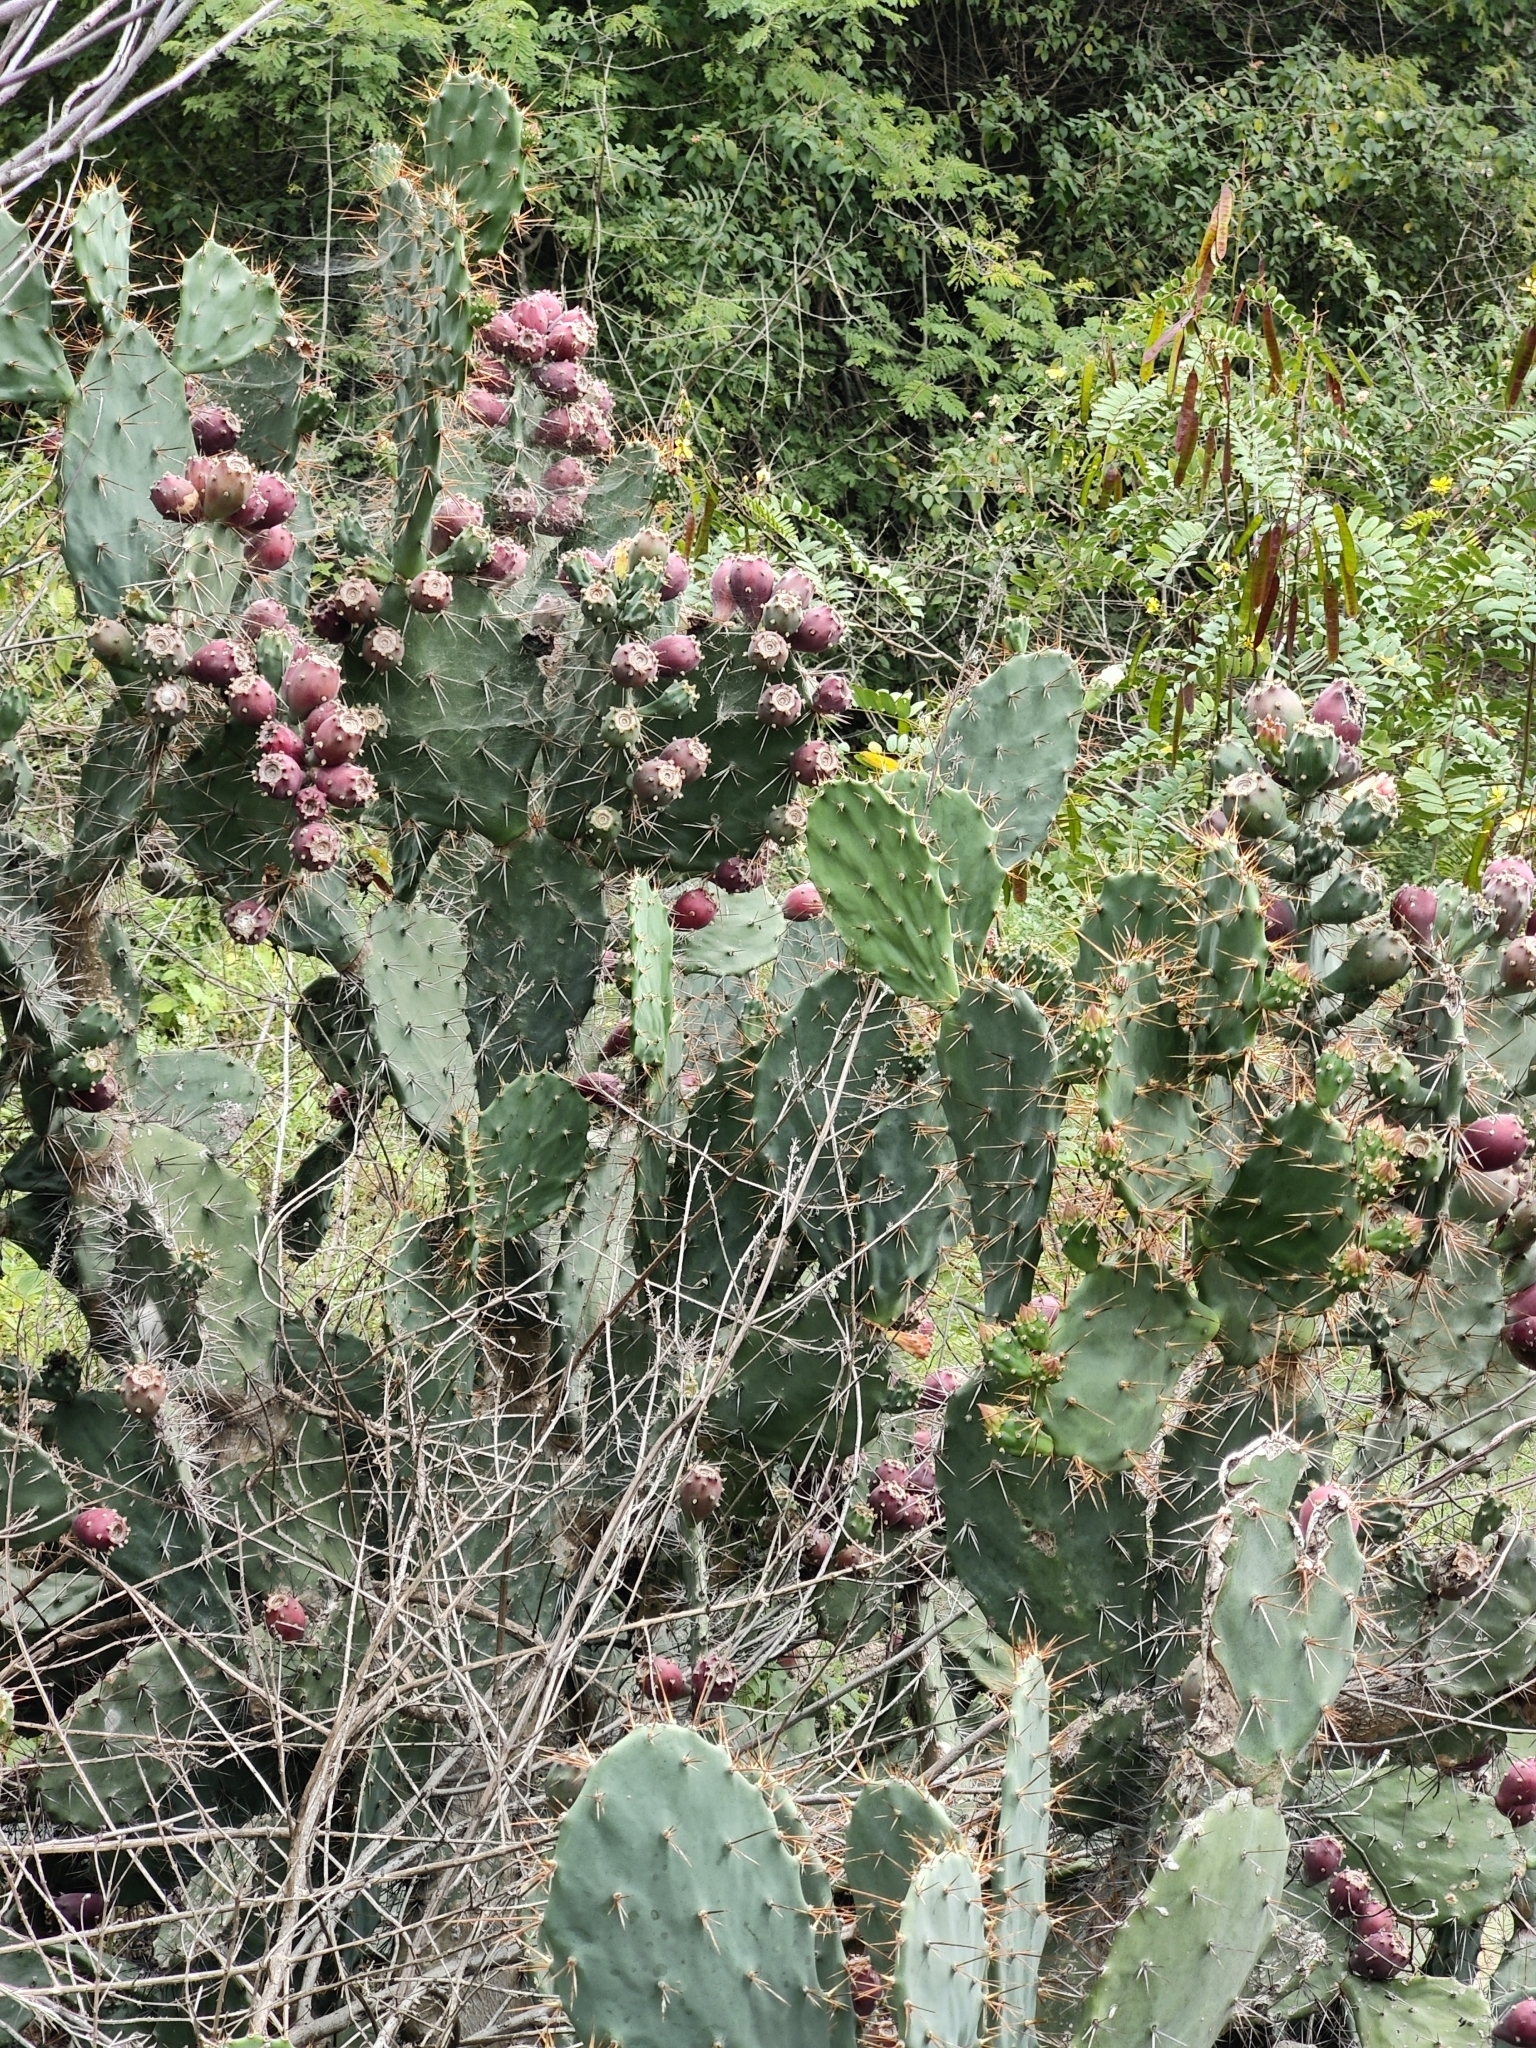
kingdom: Plantae
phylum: Tracheophyta
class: Magnoliopsida
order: Caryophyllales
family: Cactaceae
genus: Opuntia
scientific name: Opuntia elatior
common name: Tuna
